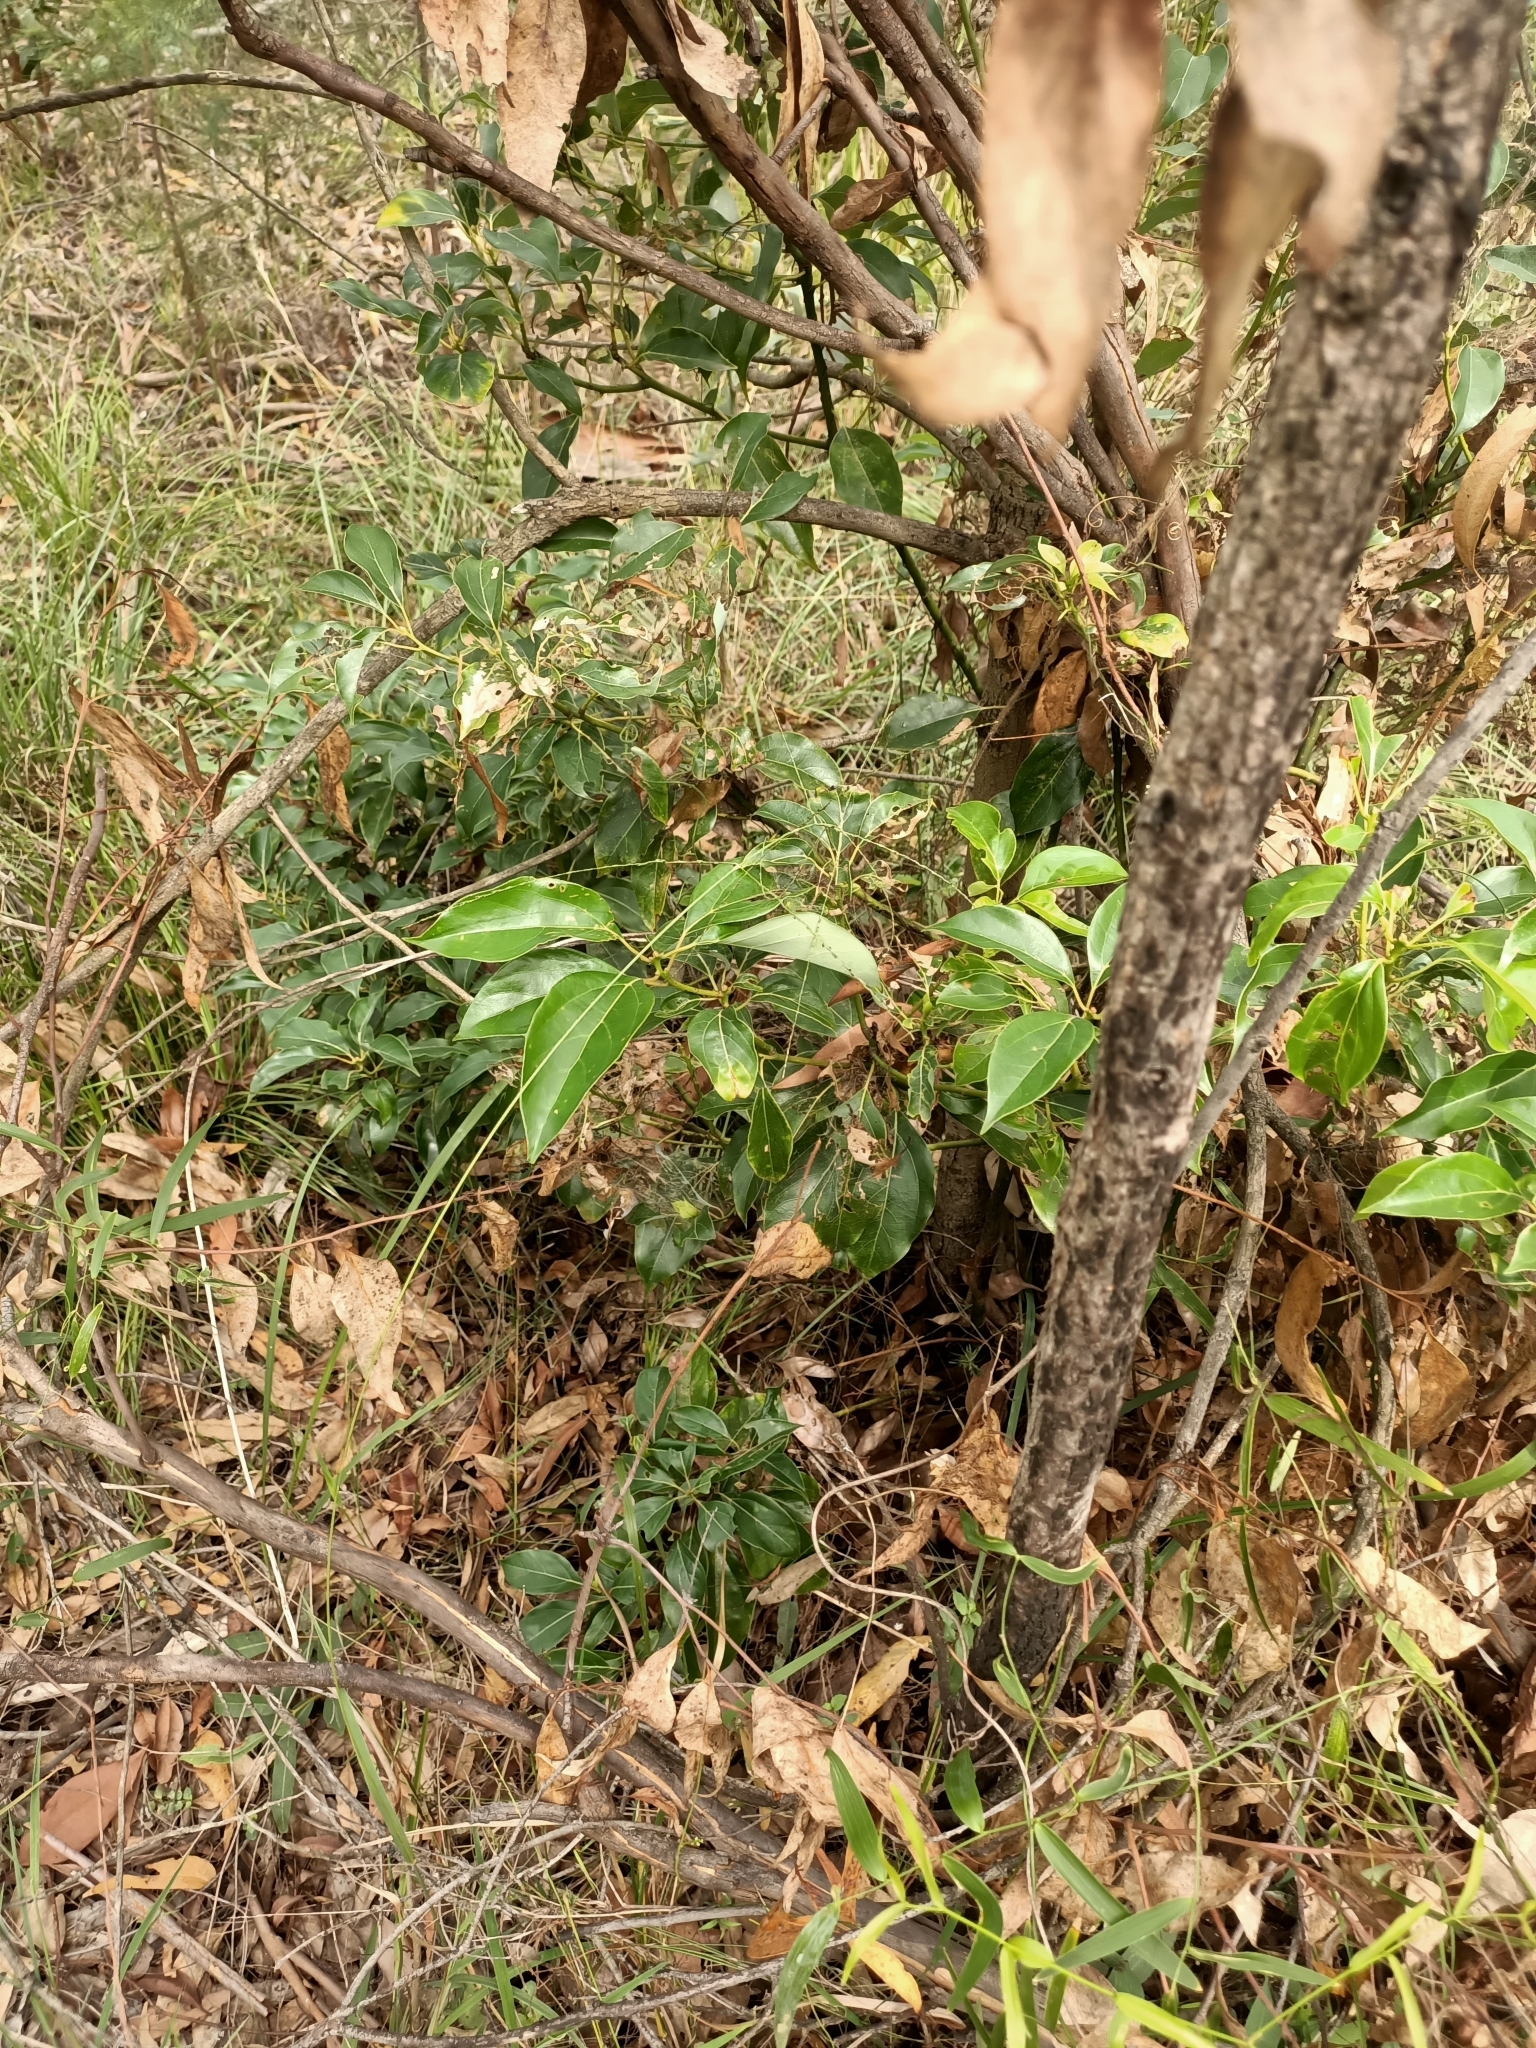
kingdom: Plantae
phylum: Tracheophyta
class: Magnoliopsida
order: Laurales
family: Lauraceae
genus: Cinnamomum
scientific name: Cinnamomum camphora
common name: Camphortree
